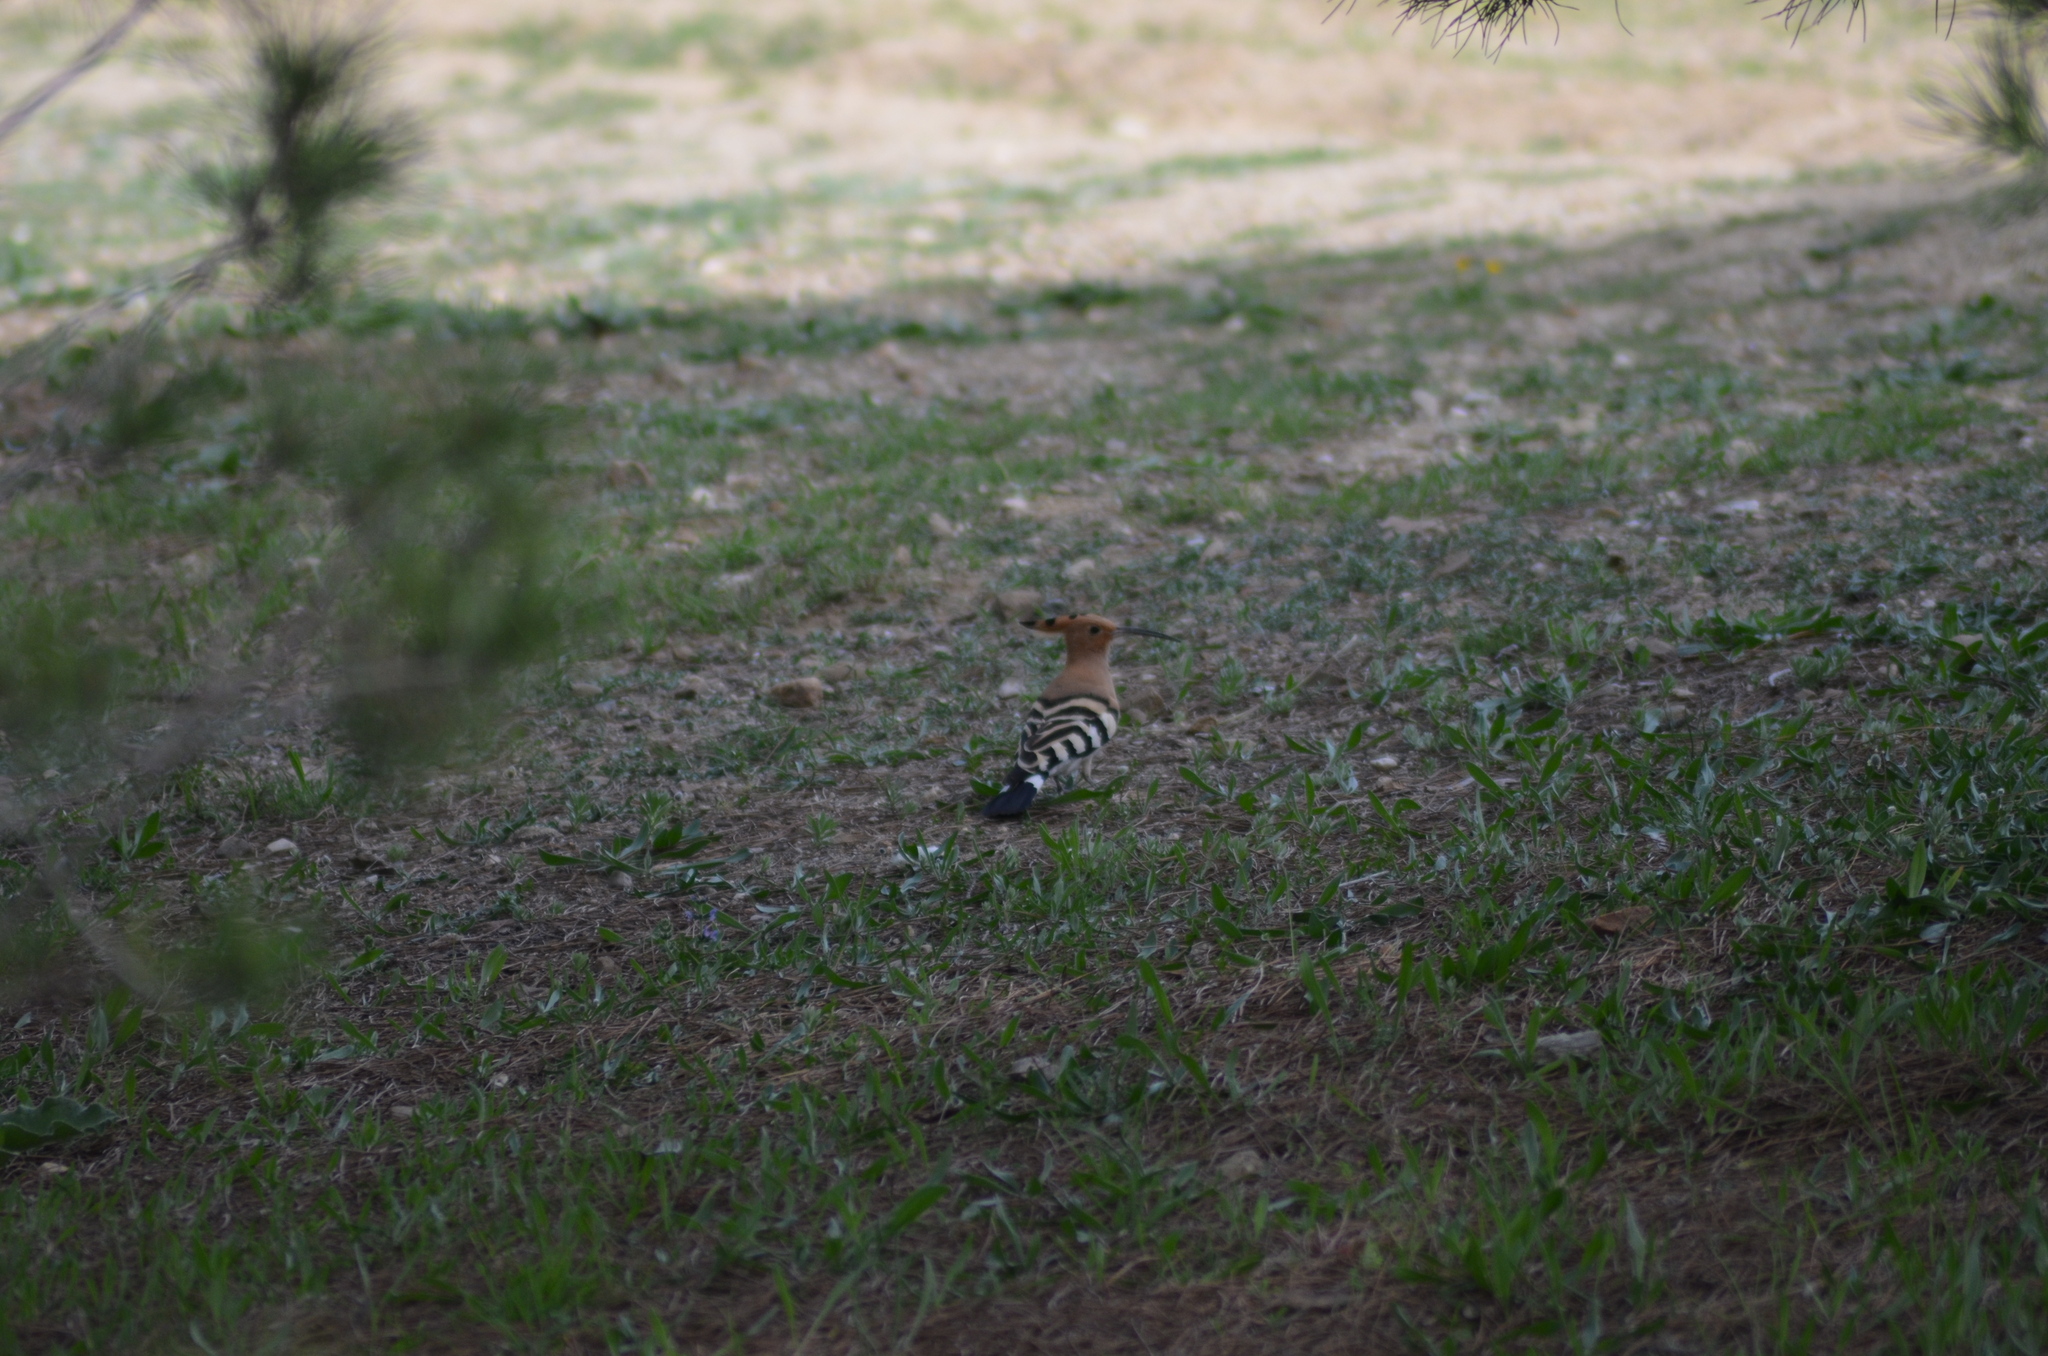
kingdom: Animalia
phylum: Chordata
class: Aves
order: Bucerotiformes
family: Upupidae
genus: Upupa
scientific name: Upupa epops
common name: Eurasian hoopoe
